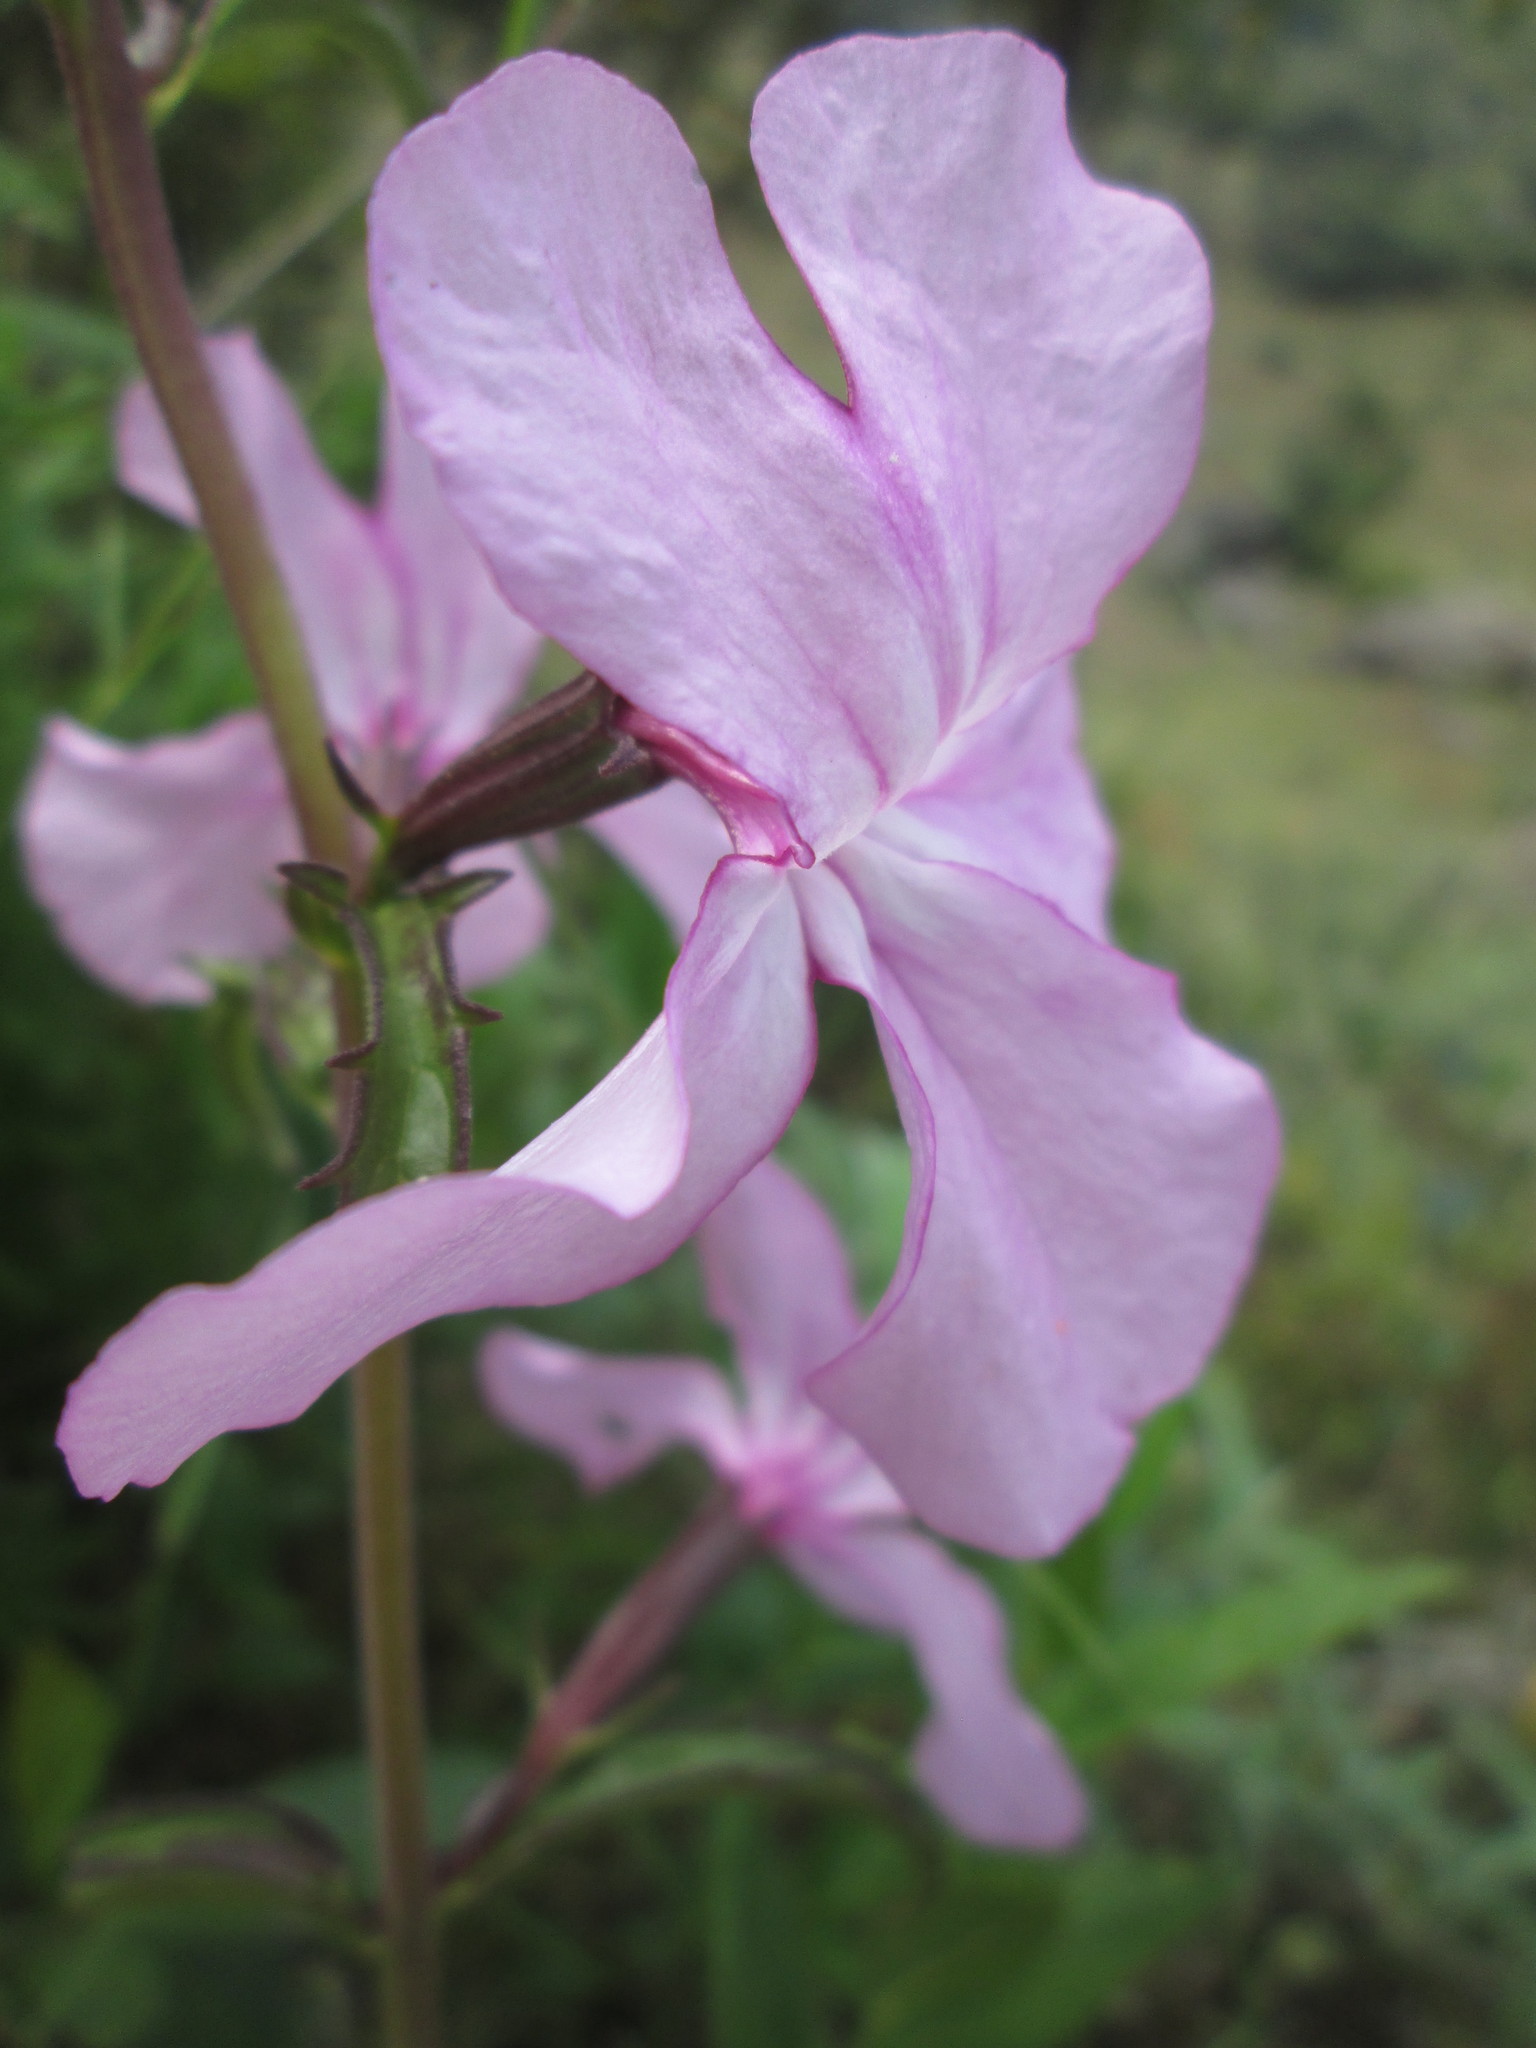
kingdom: Plantae
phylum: Tracheophyta
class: Magnoliopsida
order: Lamiales
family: Orobanchaceae
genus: Cycnium
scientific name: Cycnium racemosum
